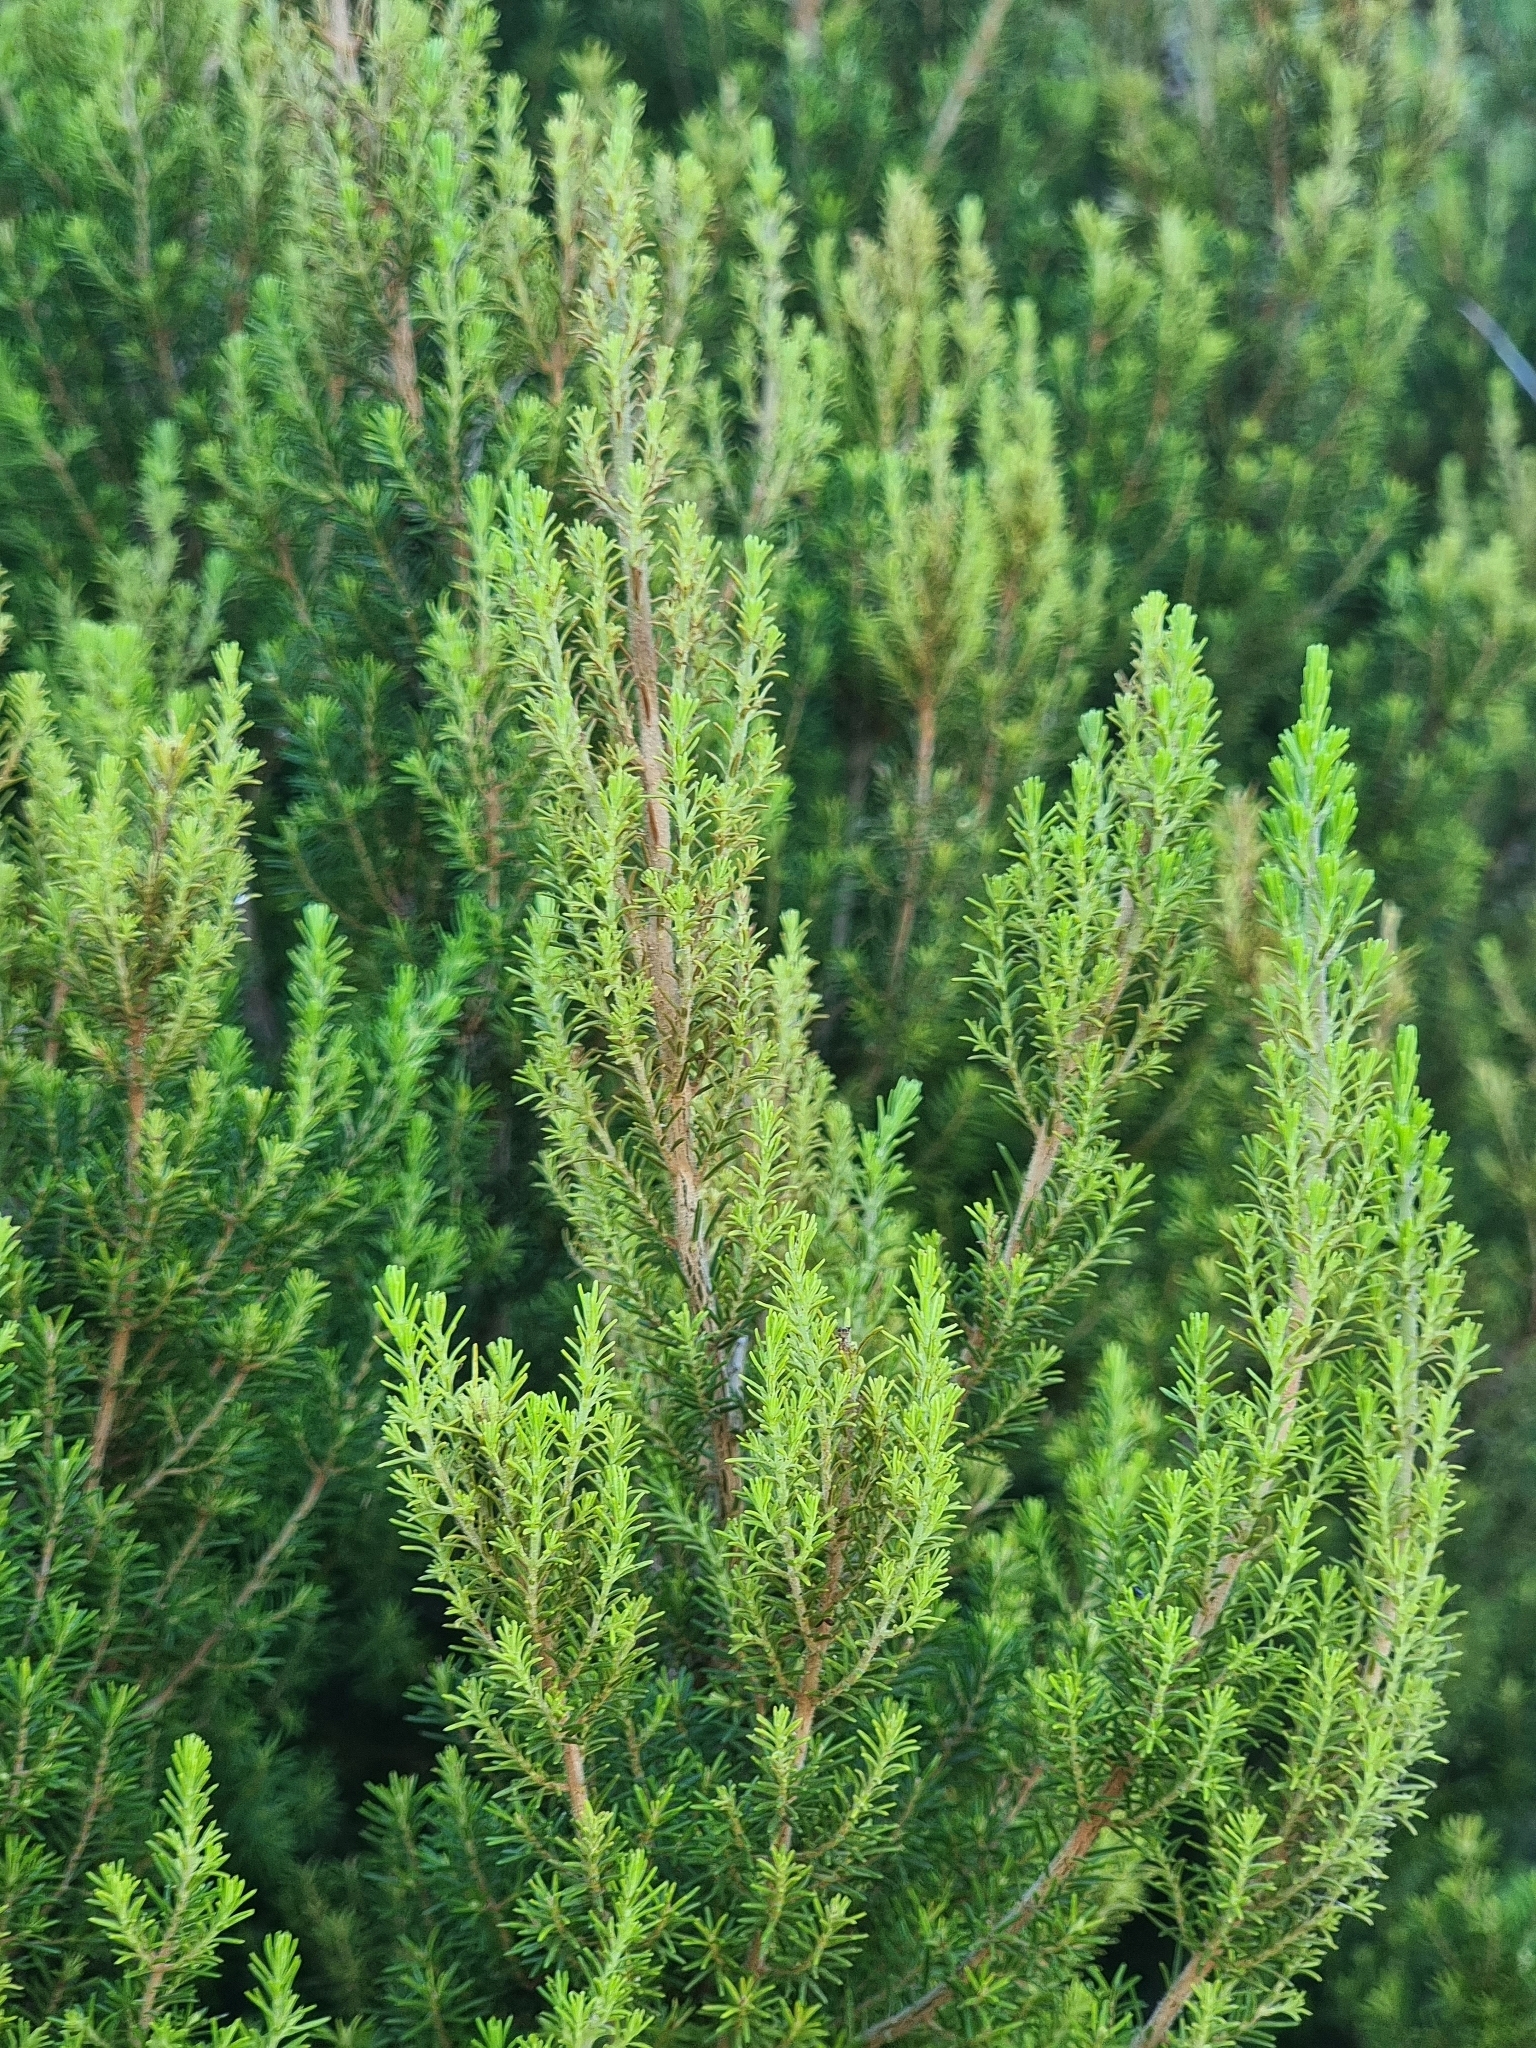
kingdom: Plantae
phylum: Tracheophyta
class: Magnoliopsida
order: Ericales
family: Ericaceae
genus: Erica
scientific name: Erica canariensis
